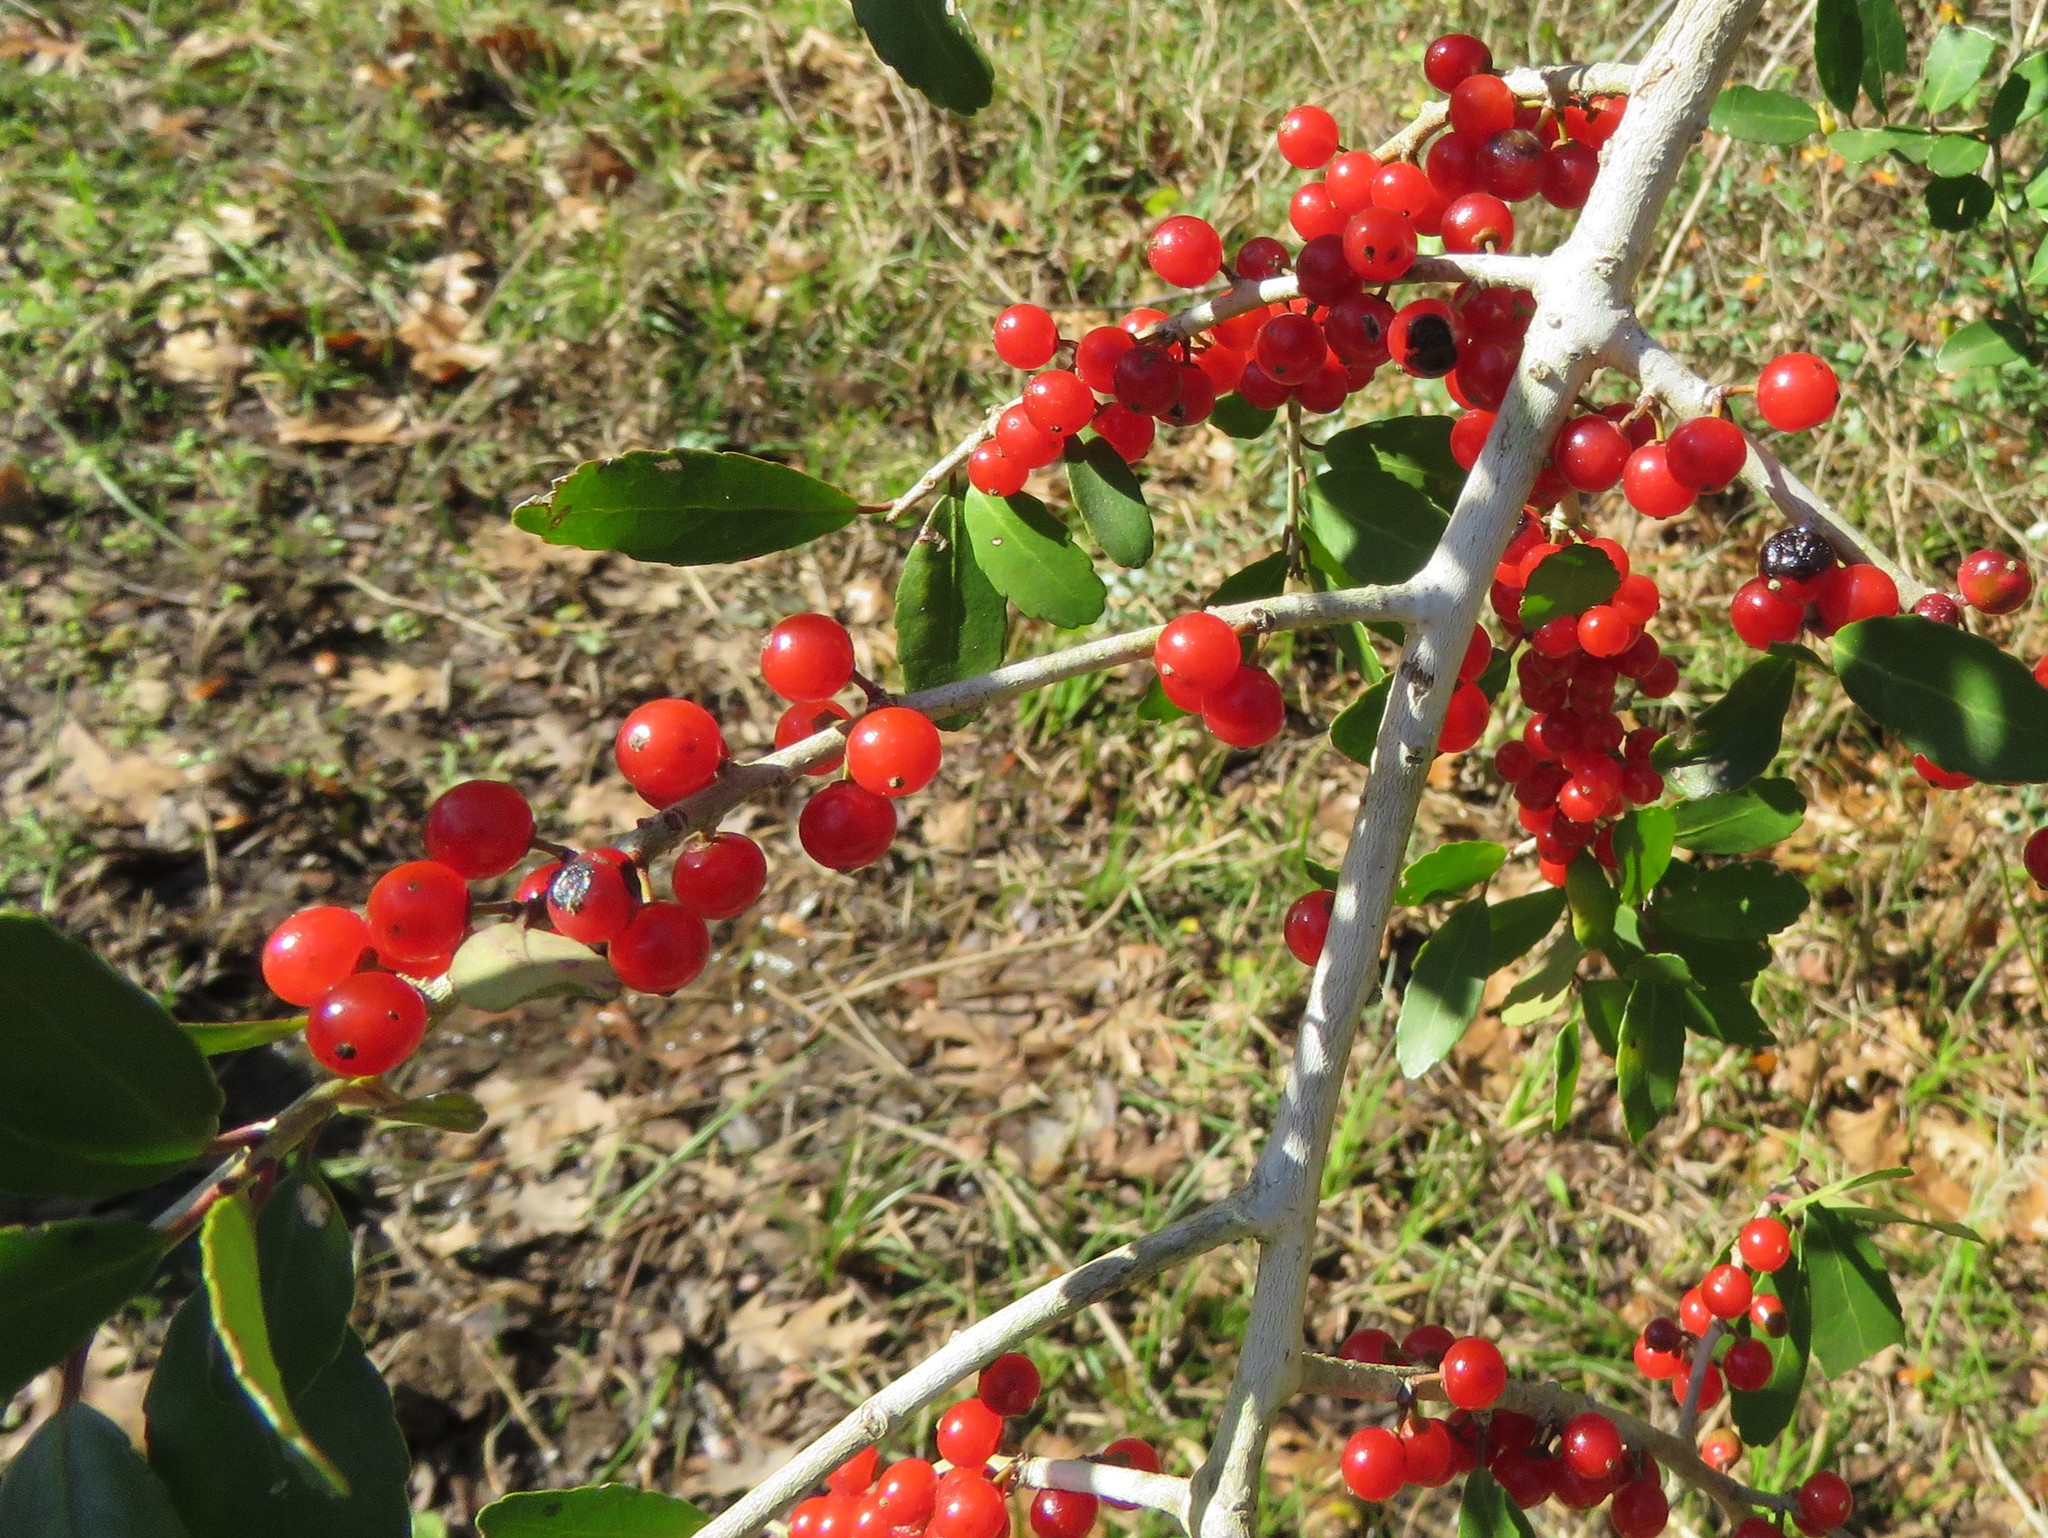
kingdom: Plantae
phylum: Tracheophyta
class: Magnoliopsida
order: Aquifoliales
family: Aquifoliaceae
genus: Ilex
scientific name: Ilex vomitoria
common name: Yaupon holly
